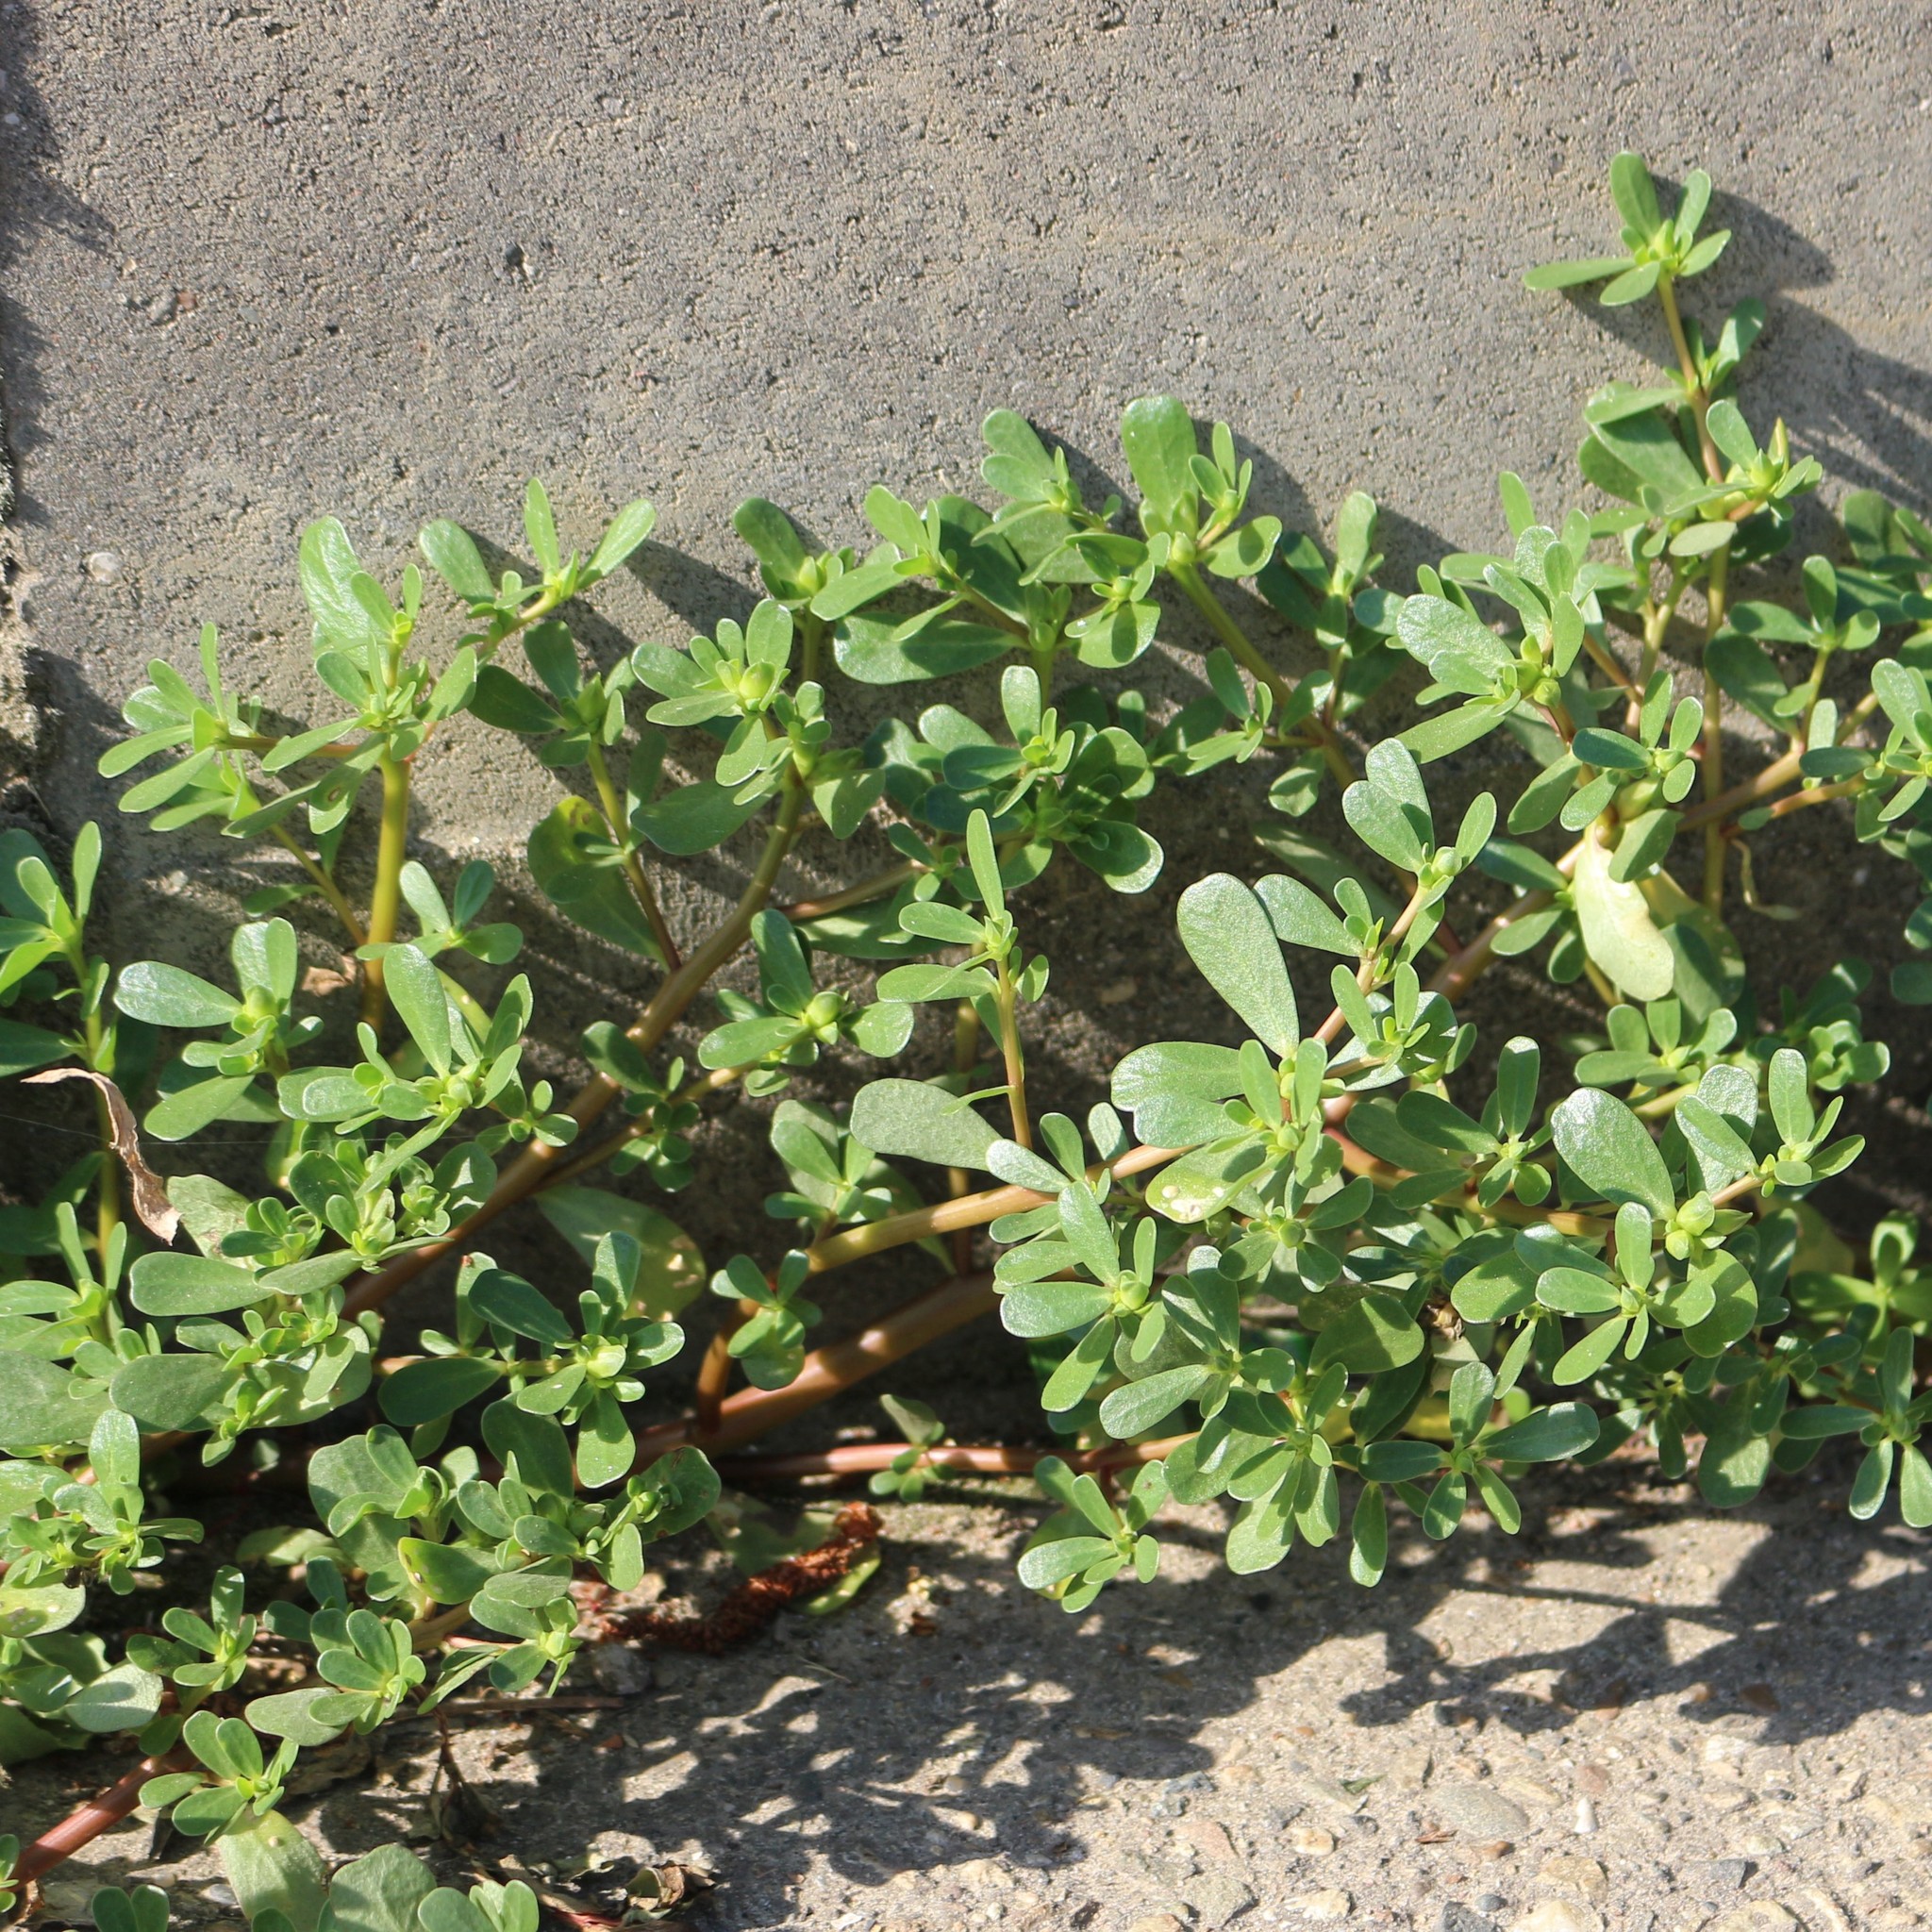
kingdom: Plantae
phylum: Tracheophyta
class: Magnoliopsida
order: Caryophyllales
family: Portulacaceae
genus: Portulaca
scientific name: Portulaca oleracea
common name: Common purslane
